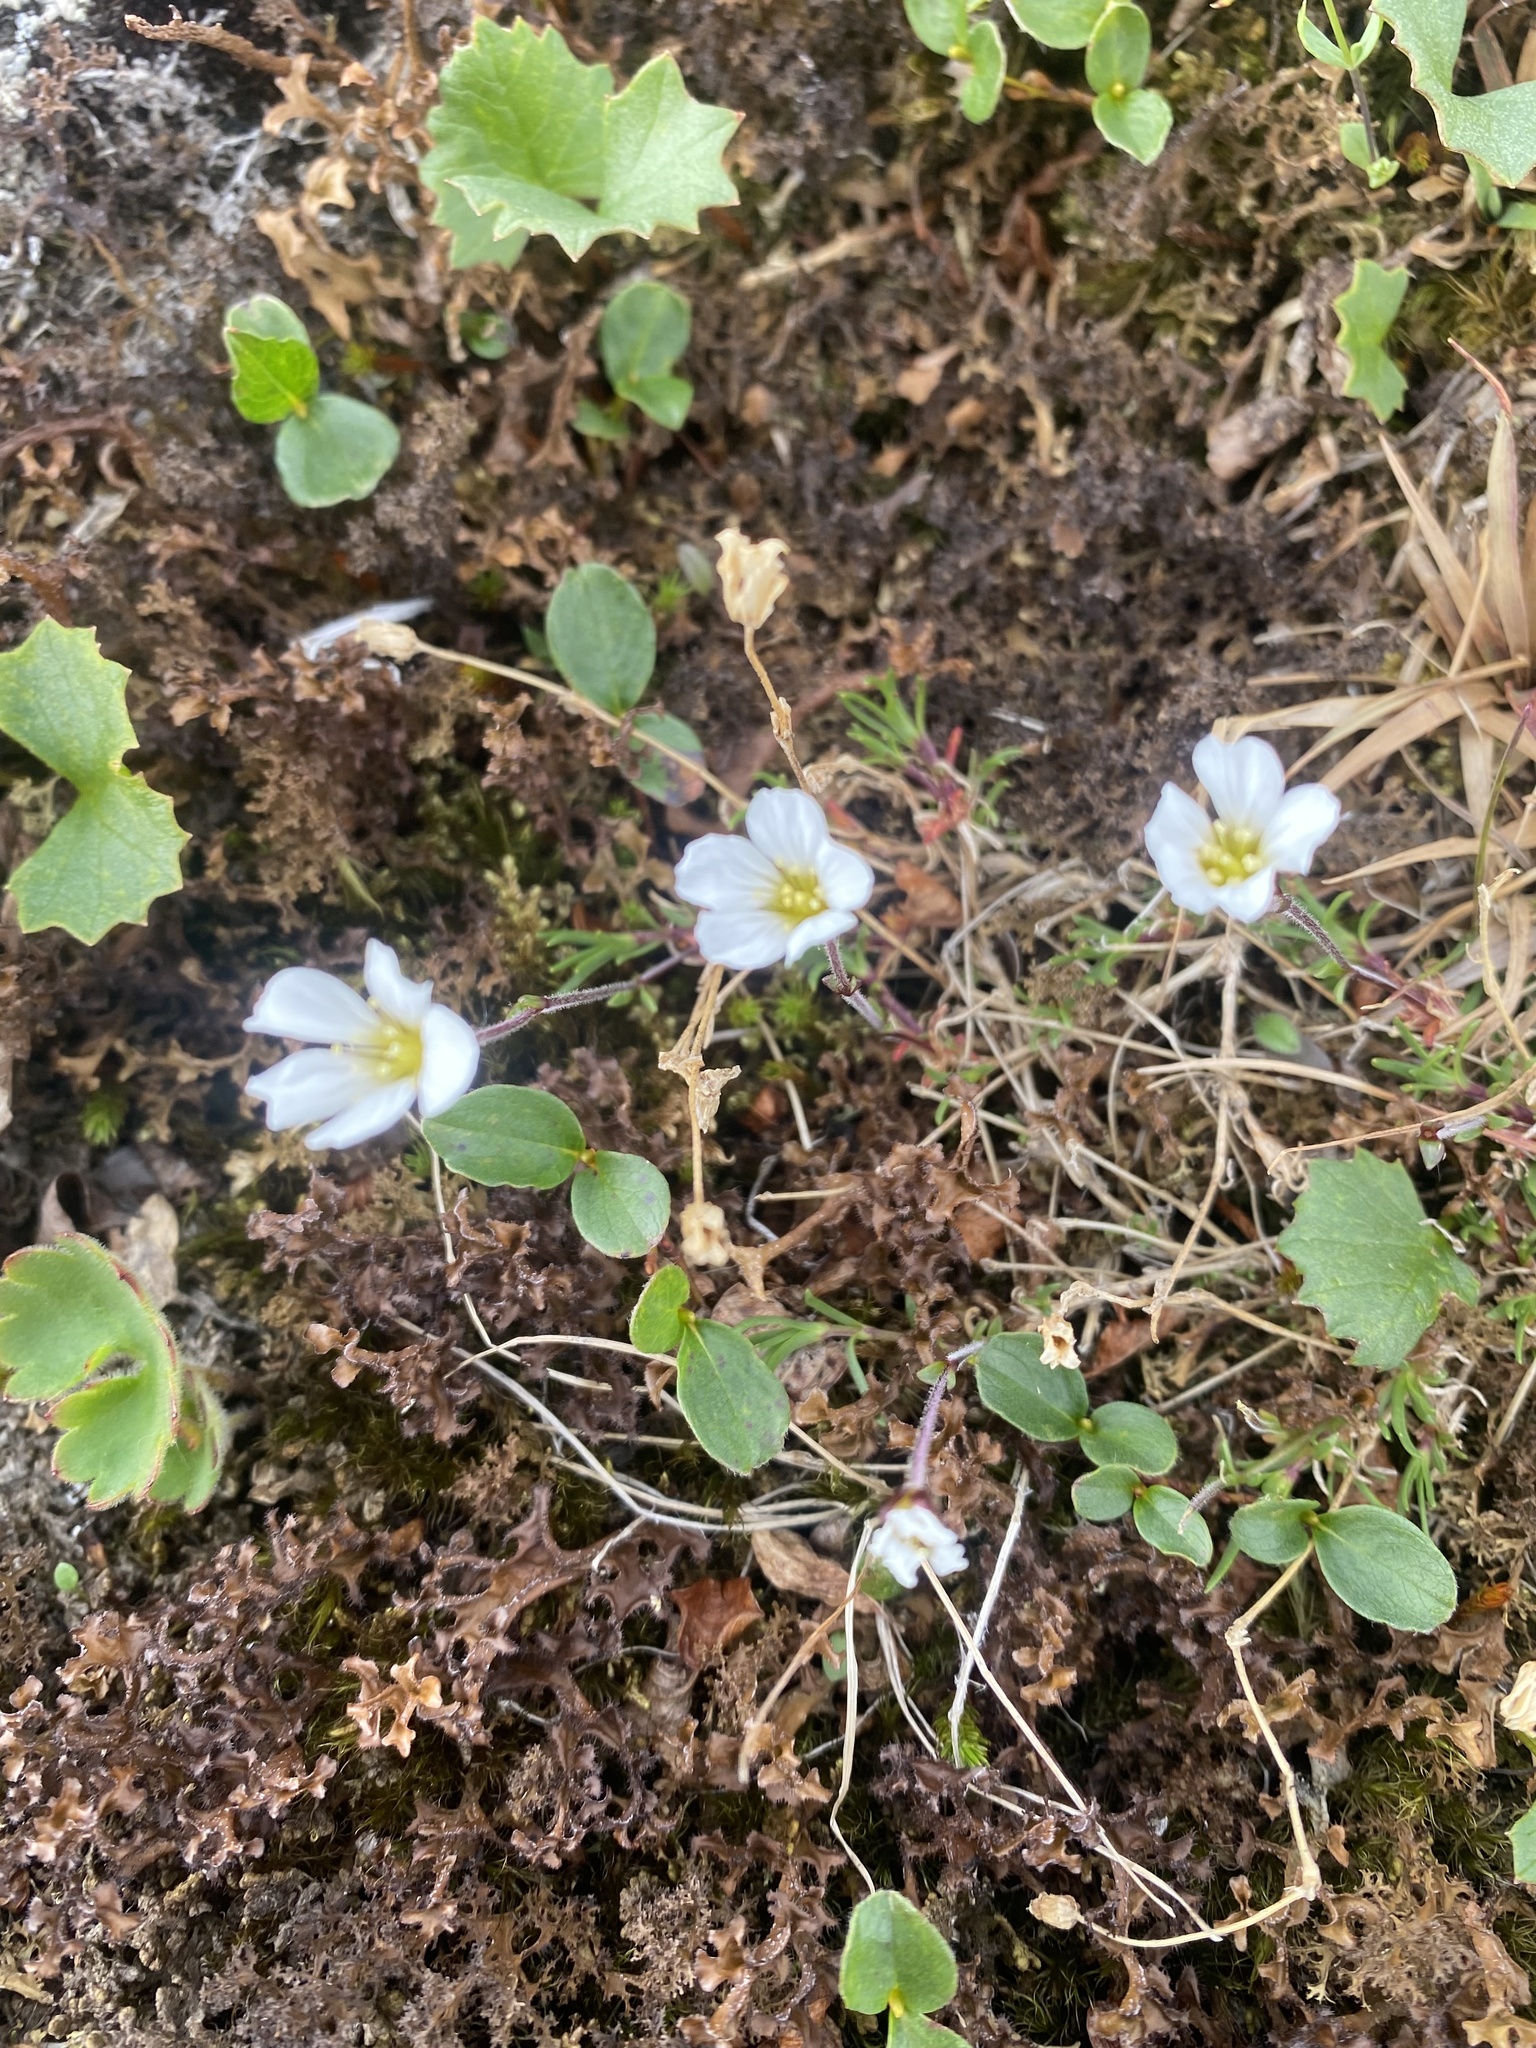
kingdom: Plantae
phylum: Tracheophyta
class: Magnoliopsida
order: Asterales
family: Asteraceae
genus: Endocellion
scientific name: Endocellion glaciale
